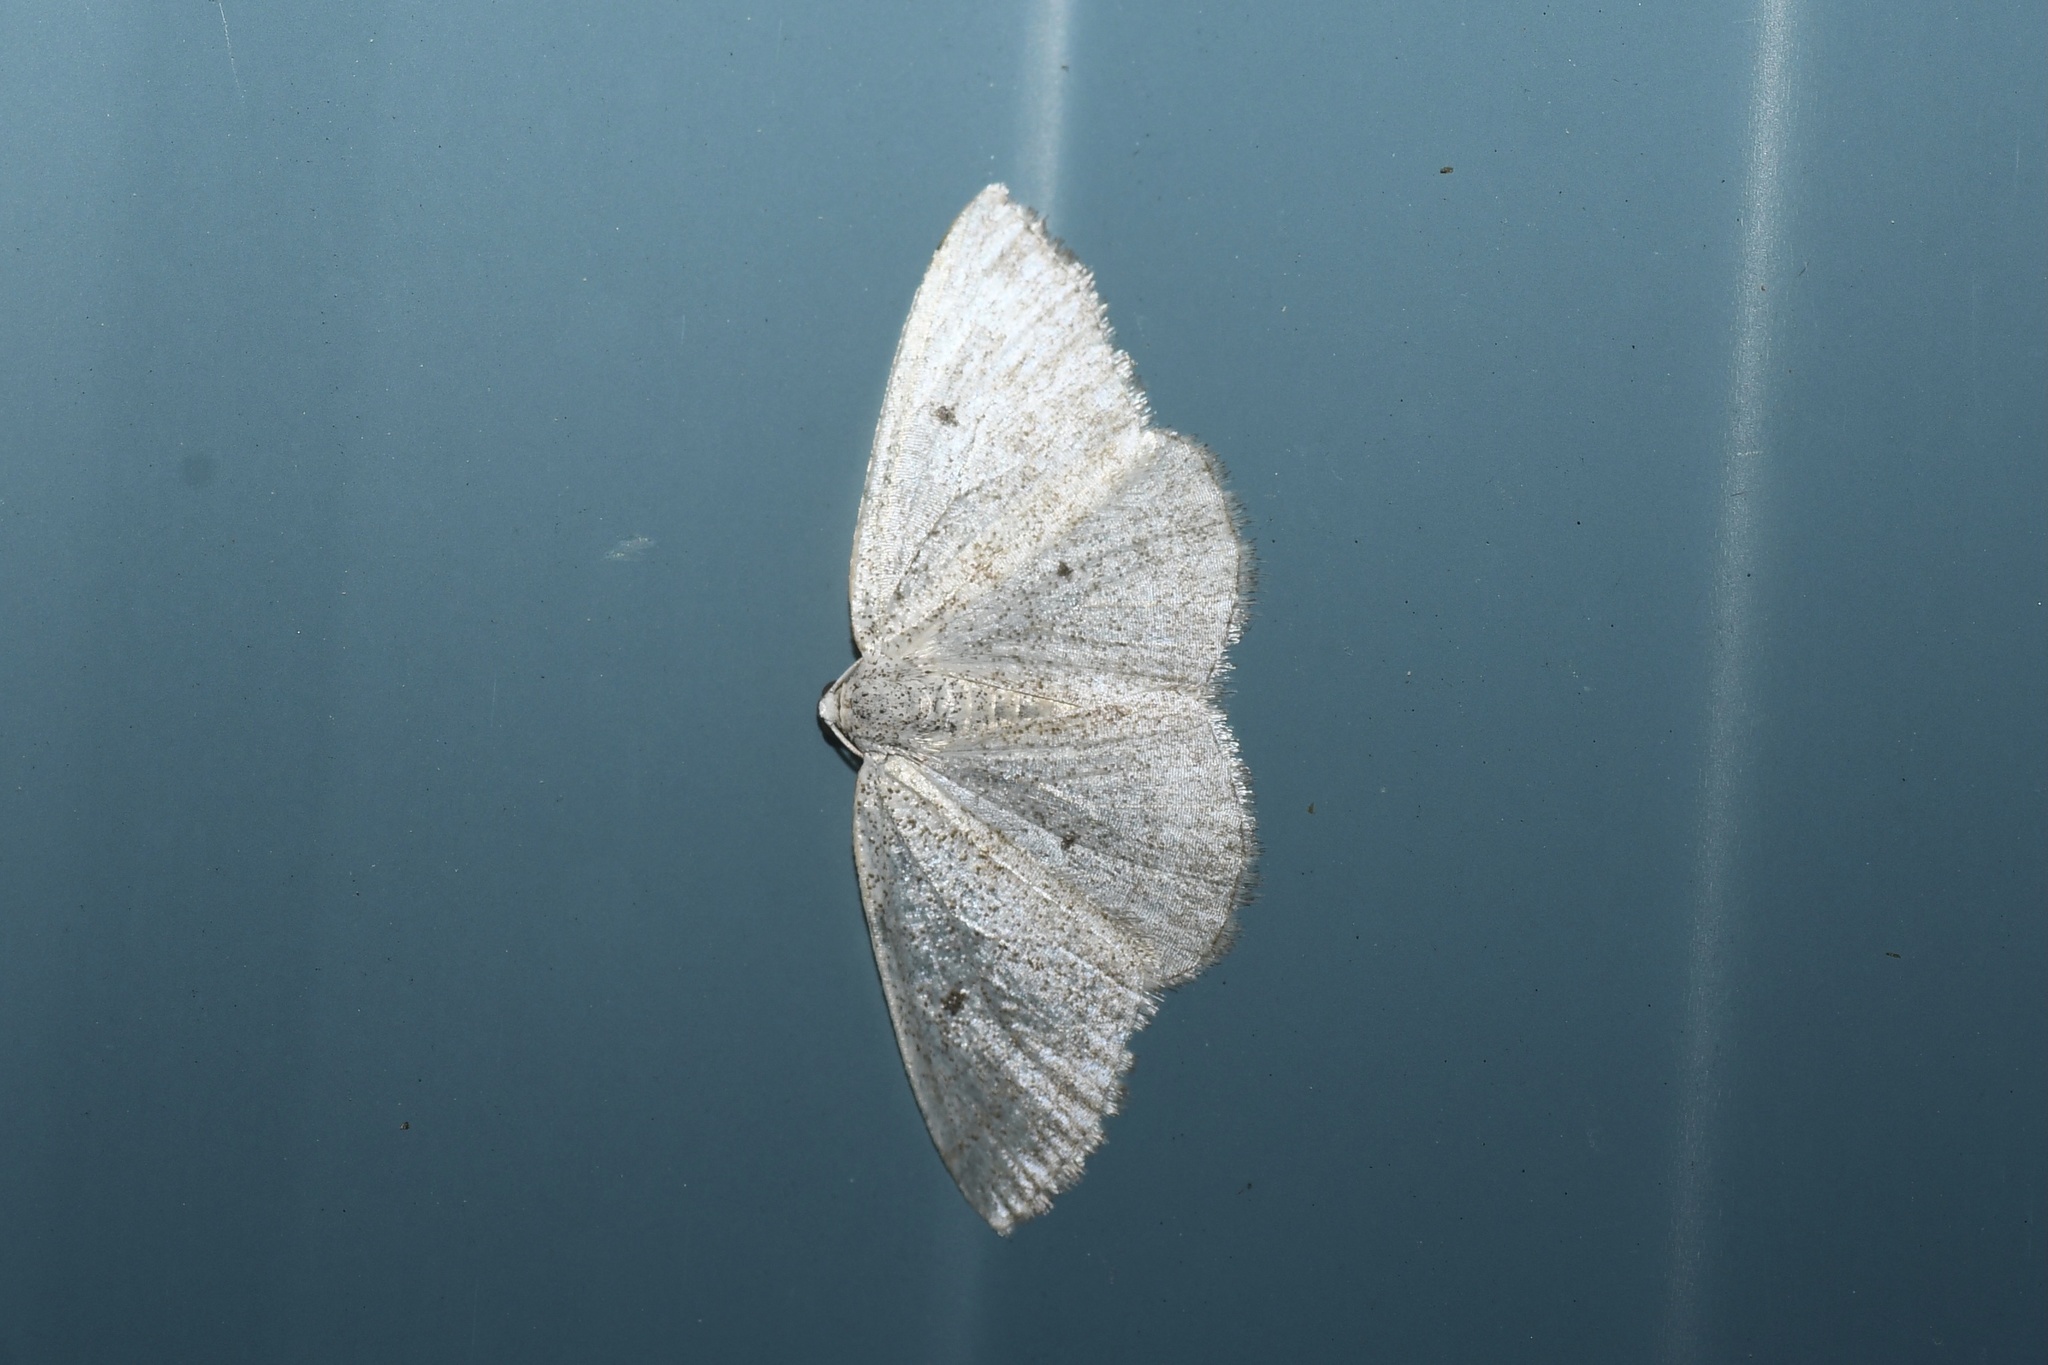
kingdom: Animalia
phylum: Arthropoda
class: Insecta
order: Lepidoptera
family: Geometridae
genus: Lomographa
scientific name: Lomographa glomeraria
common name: Gray spring moth
